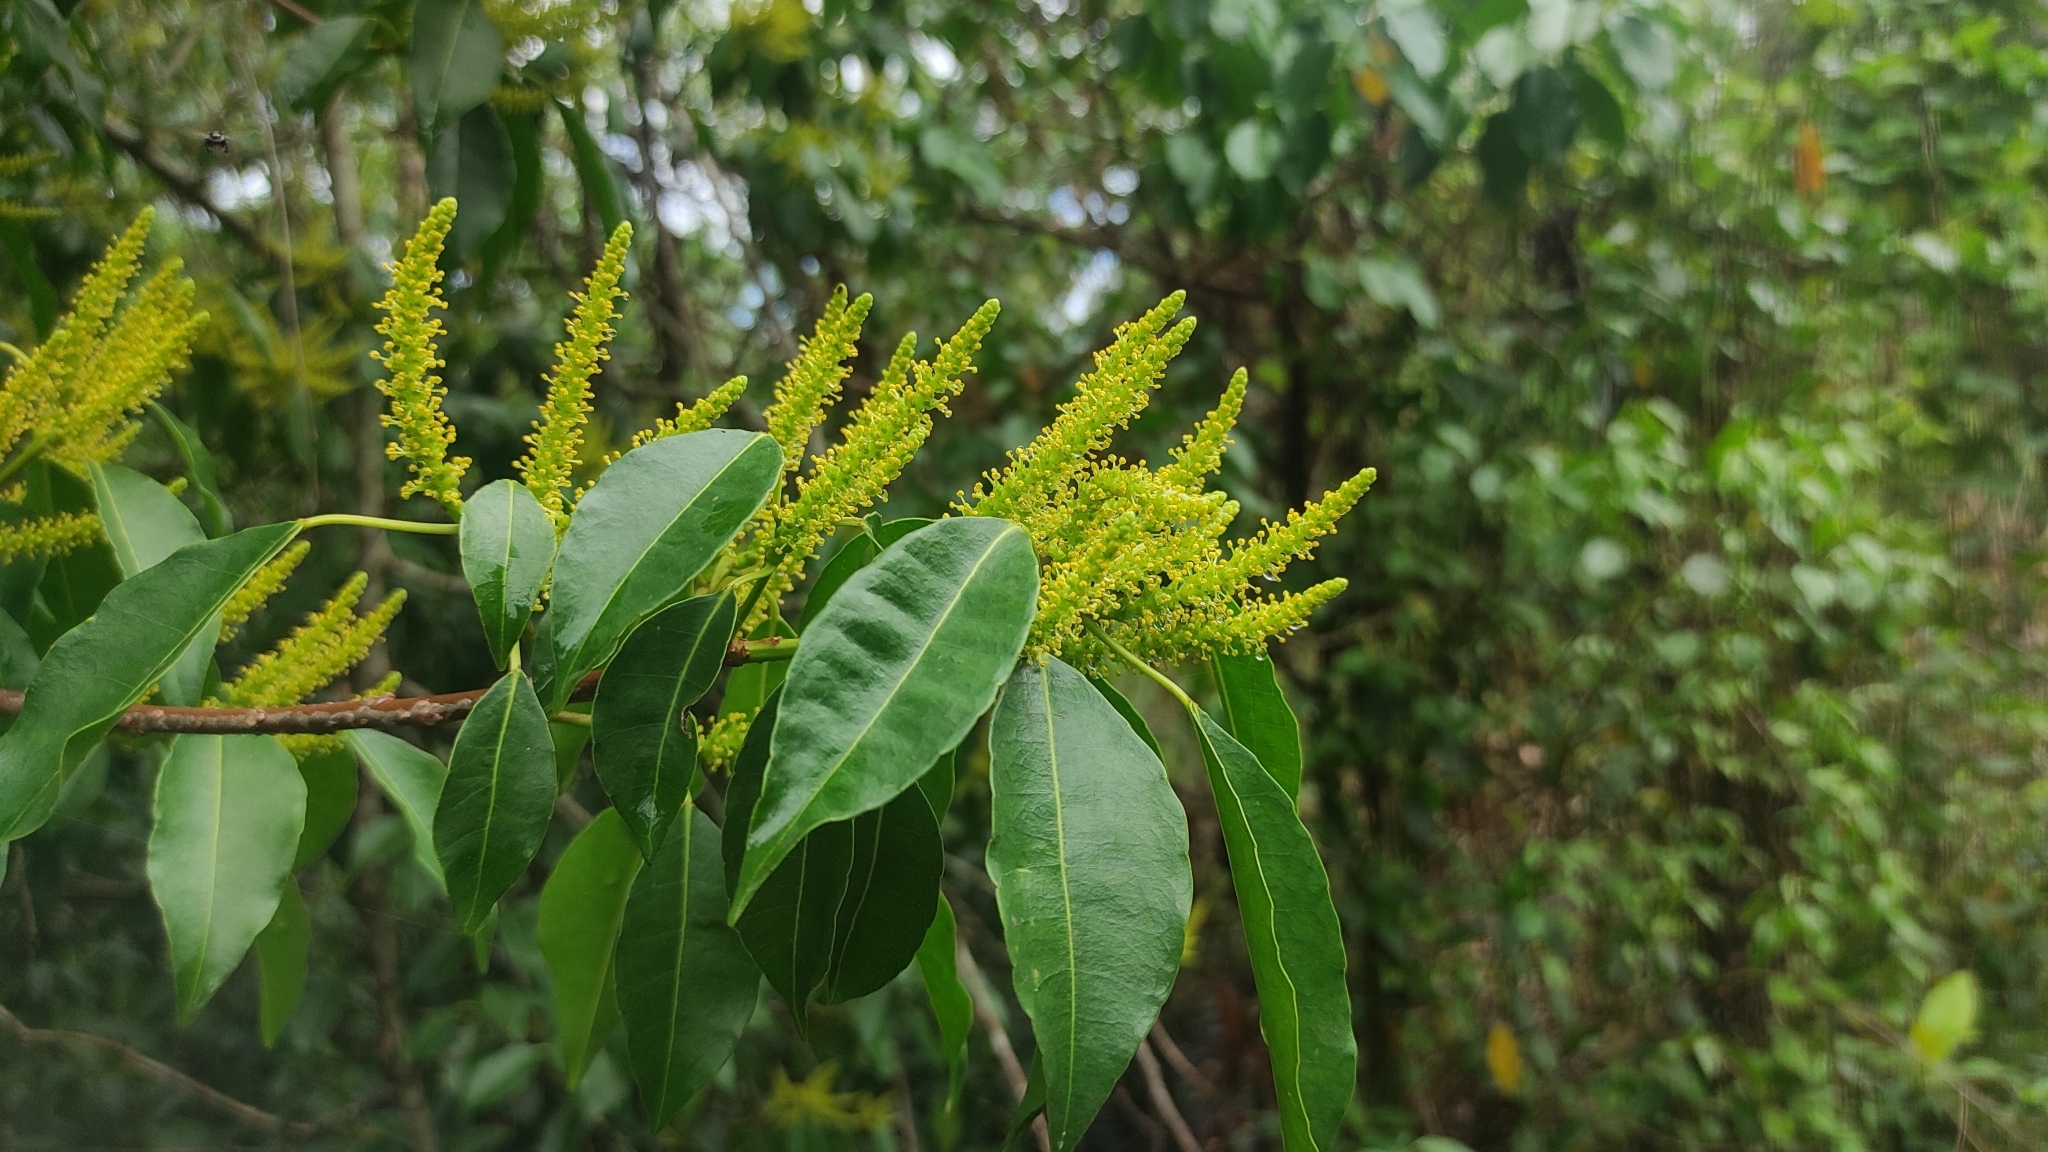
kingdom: Plantae
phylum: Tracheophyta
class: Magnoliopsida
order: Malpighiales
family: Euphorbiaceae
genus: Excoecaria
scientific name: Excoecaria agallocha
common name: River poisontree
